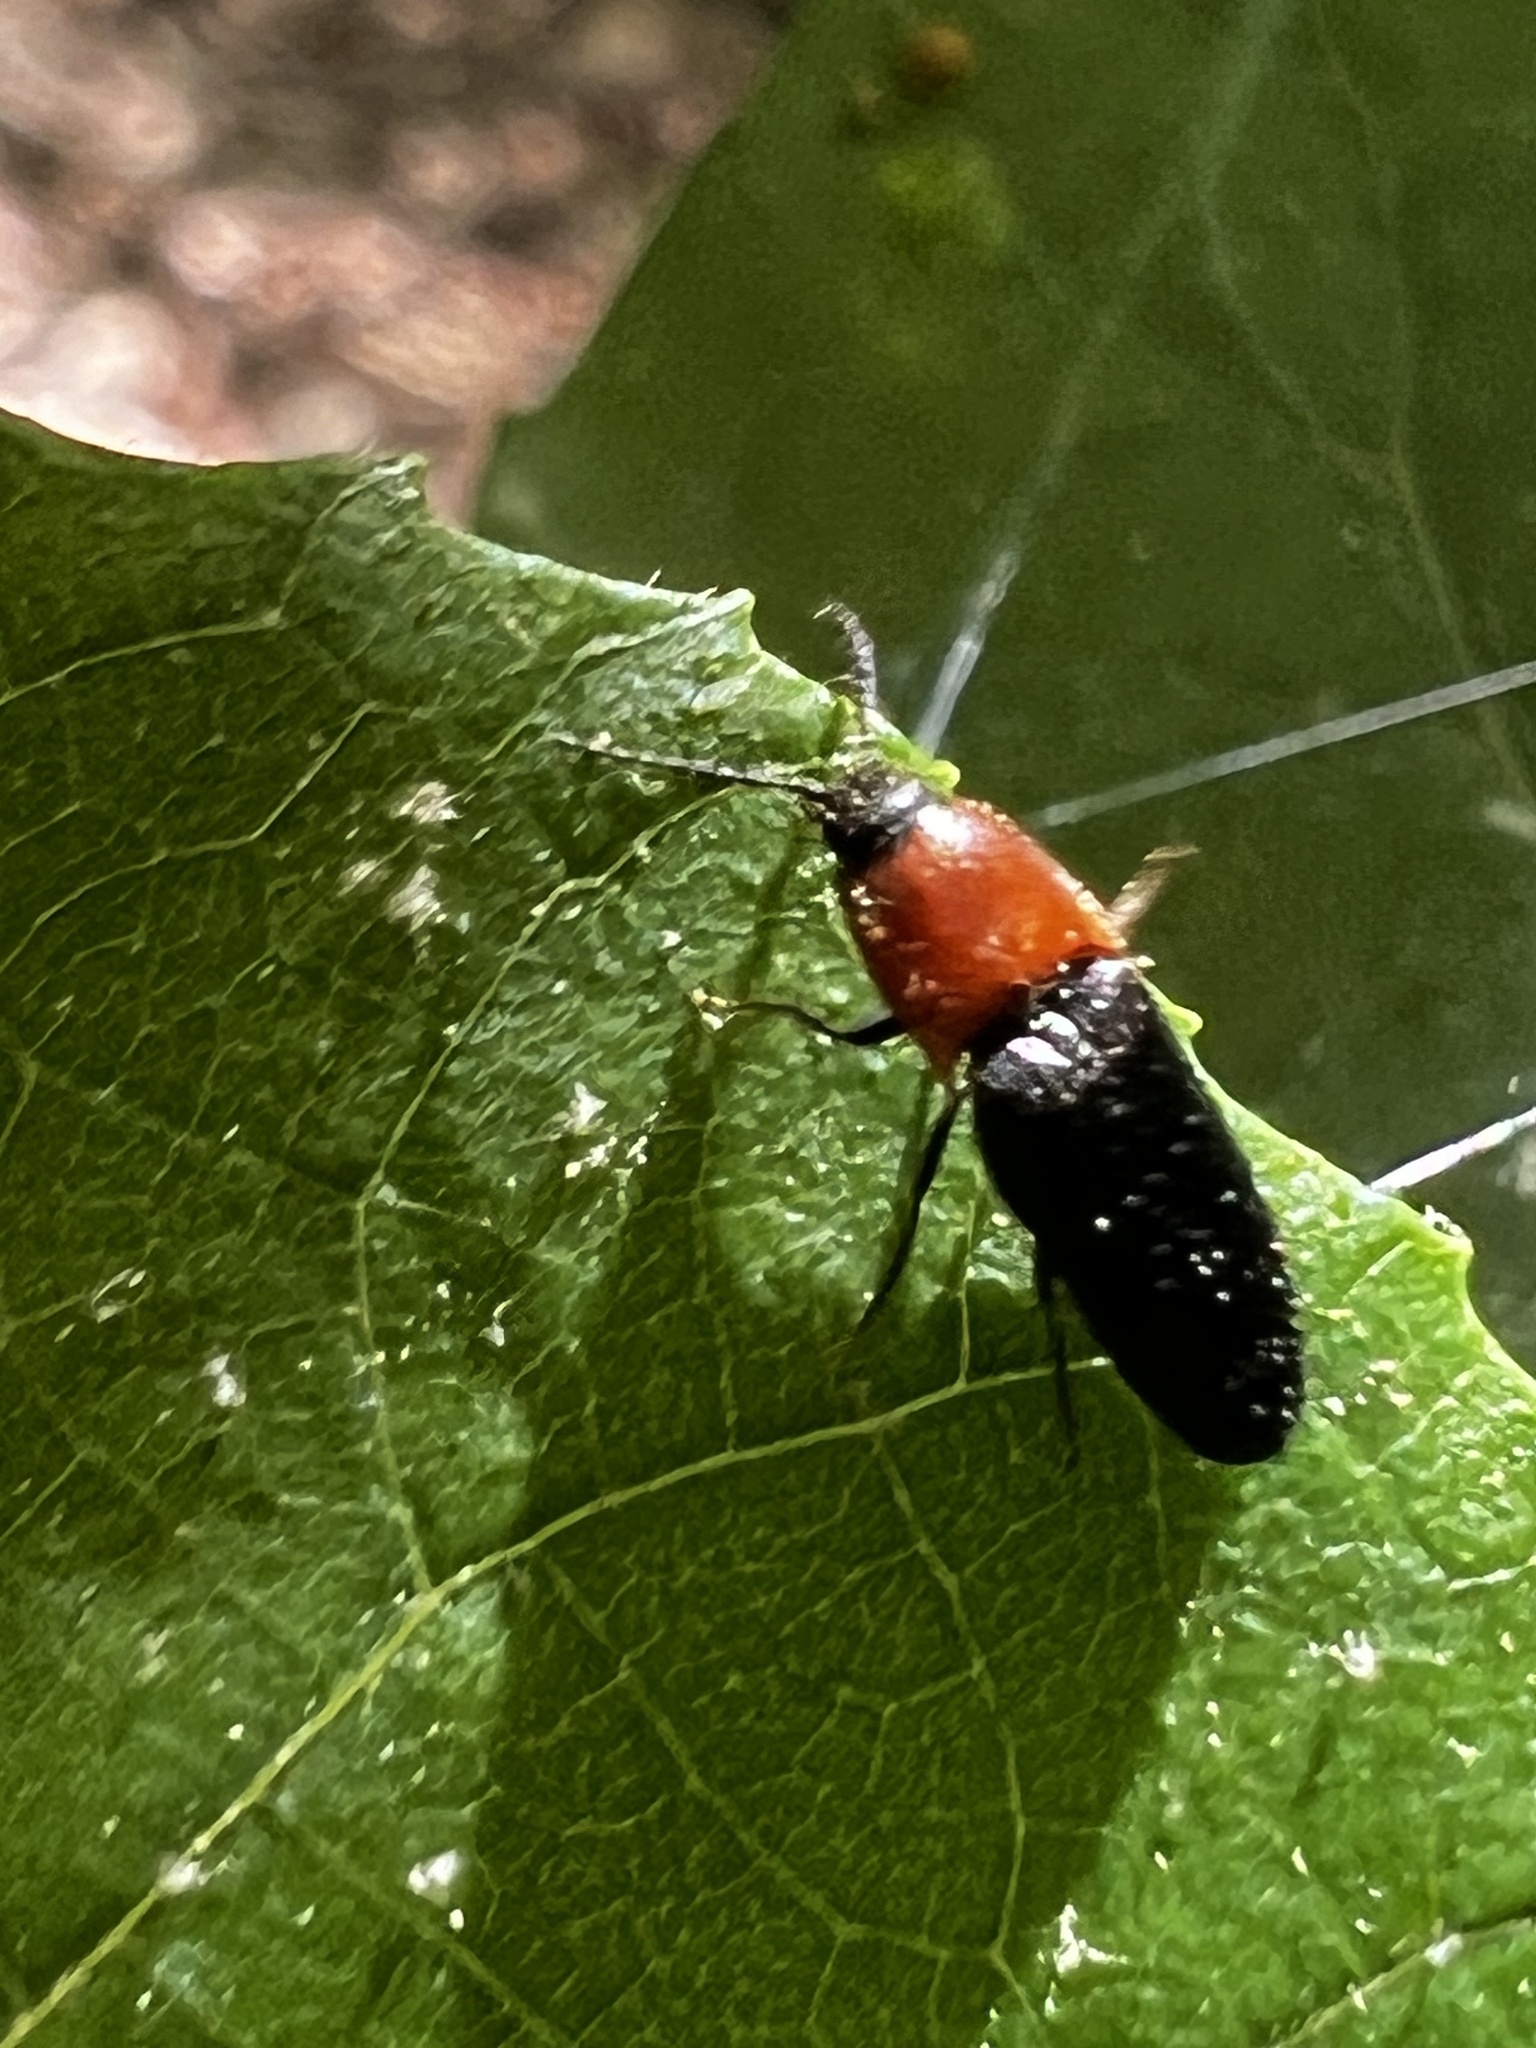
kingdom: Animalia
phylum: Arthropoda
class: Insecta
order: Coleoptera
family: Elateridae
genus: Ampedus
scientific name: Ampedus collaris
